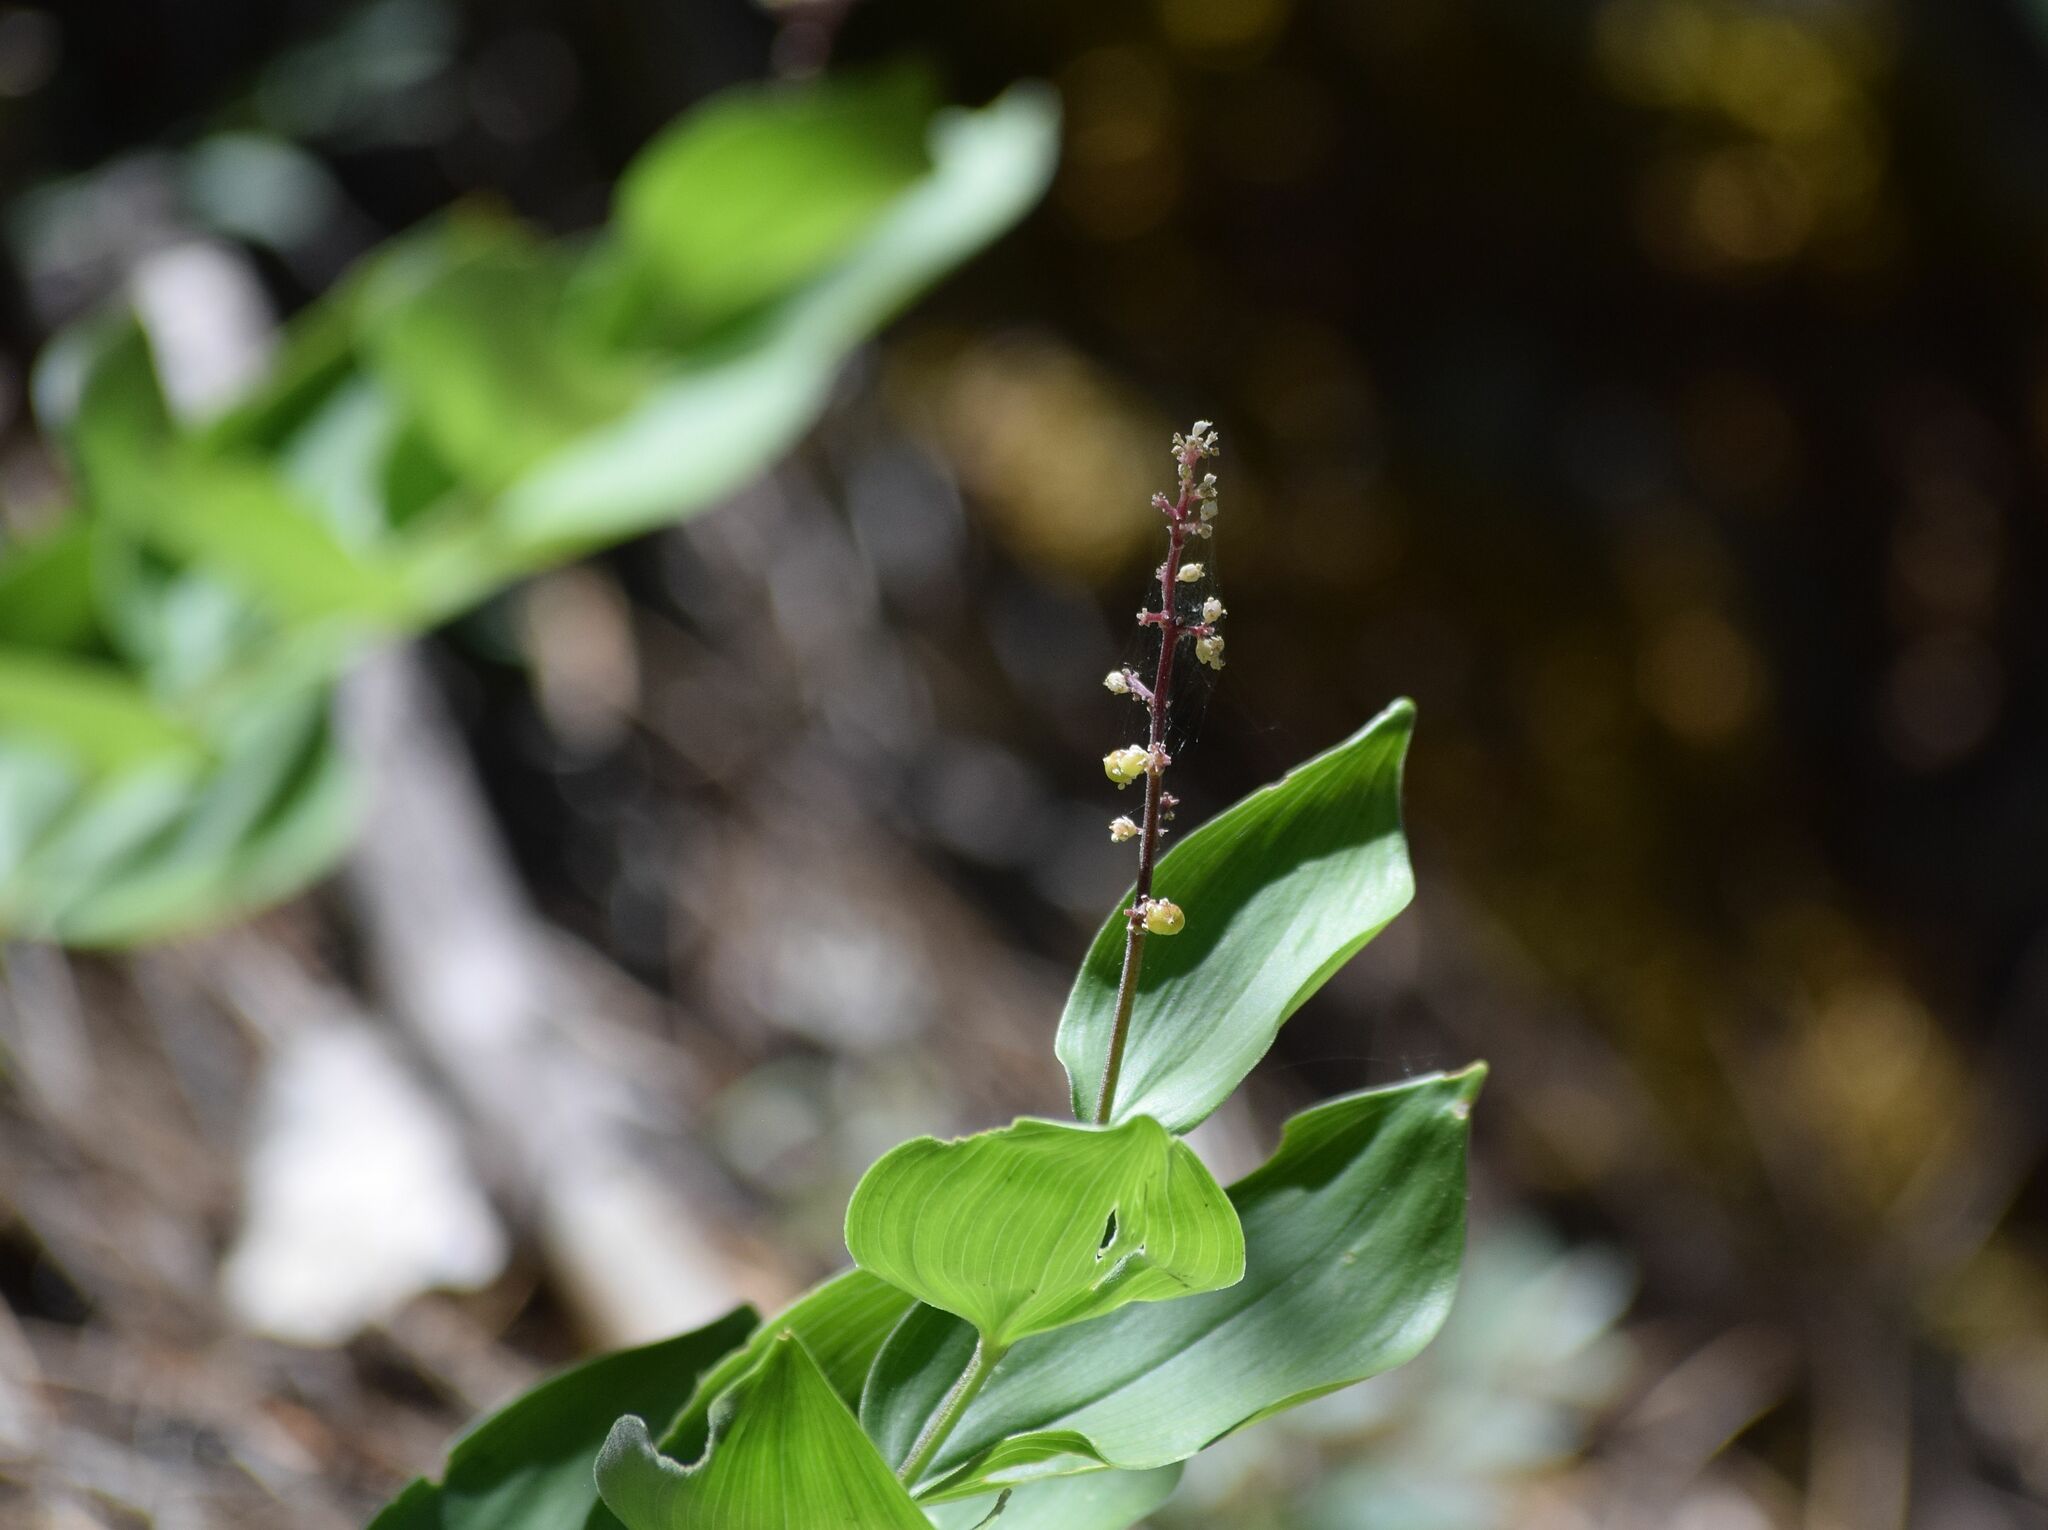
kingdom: Plantae
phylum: Tracheophyta
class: Liliopsida
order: Asparagales
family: Asparagaceae
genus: Maianthemum
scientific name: Maianthemum racemosum
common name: False spikenard
